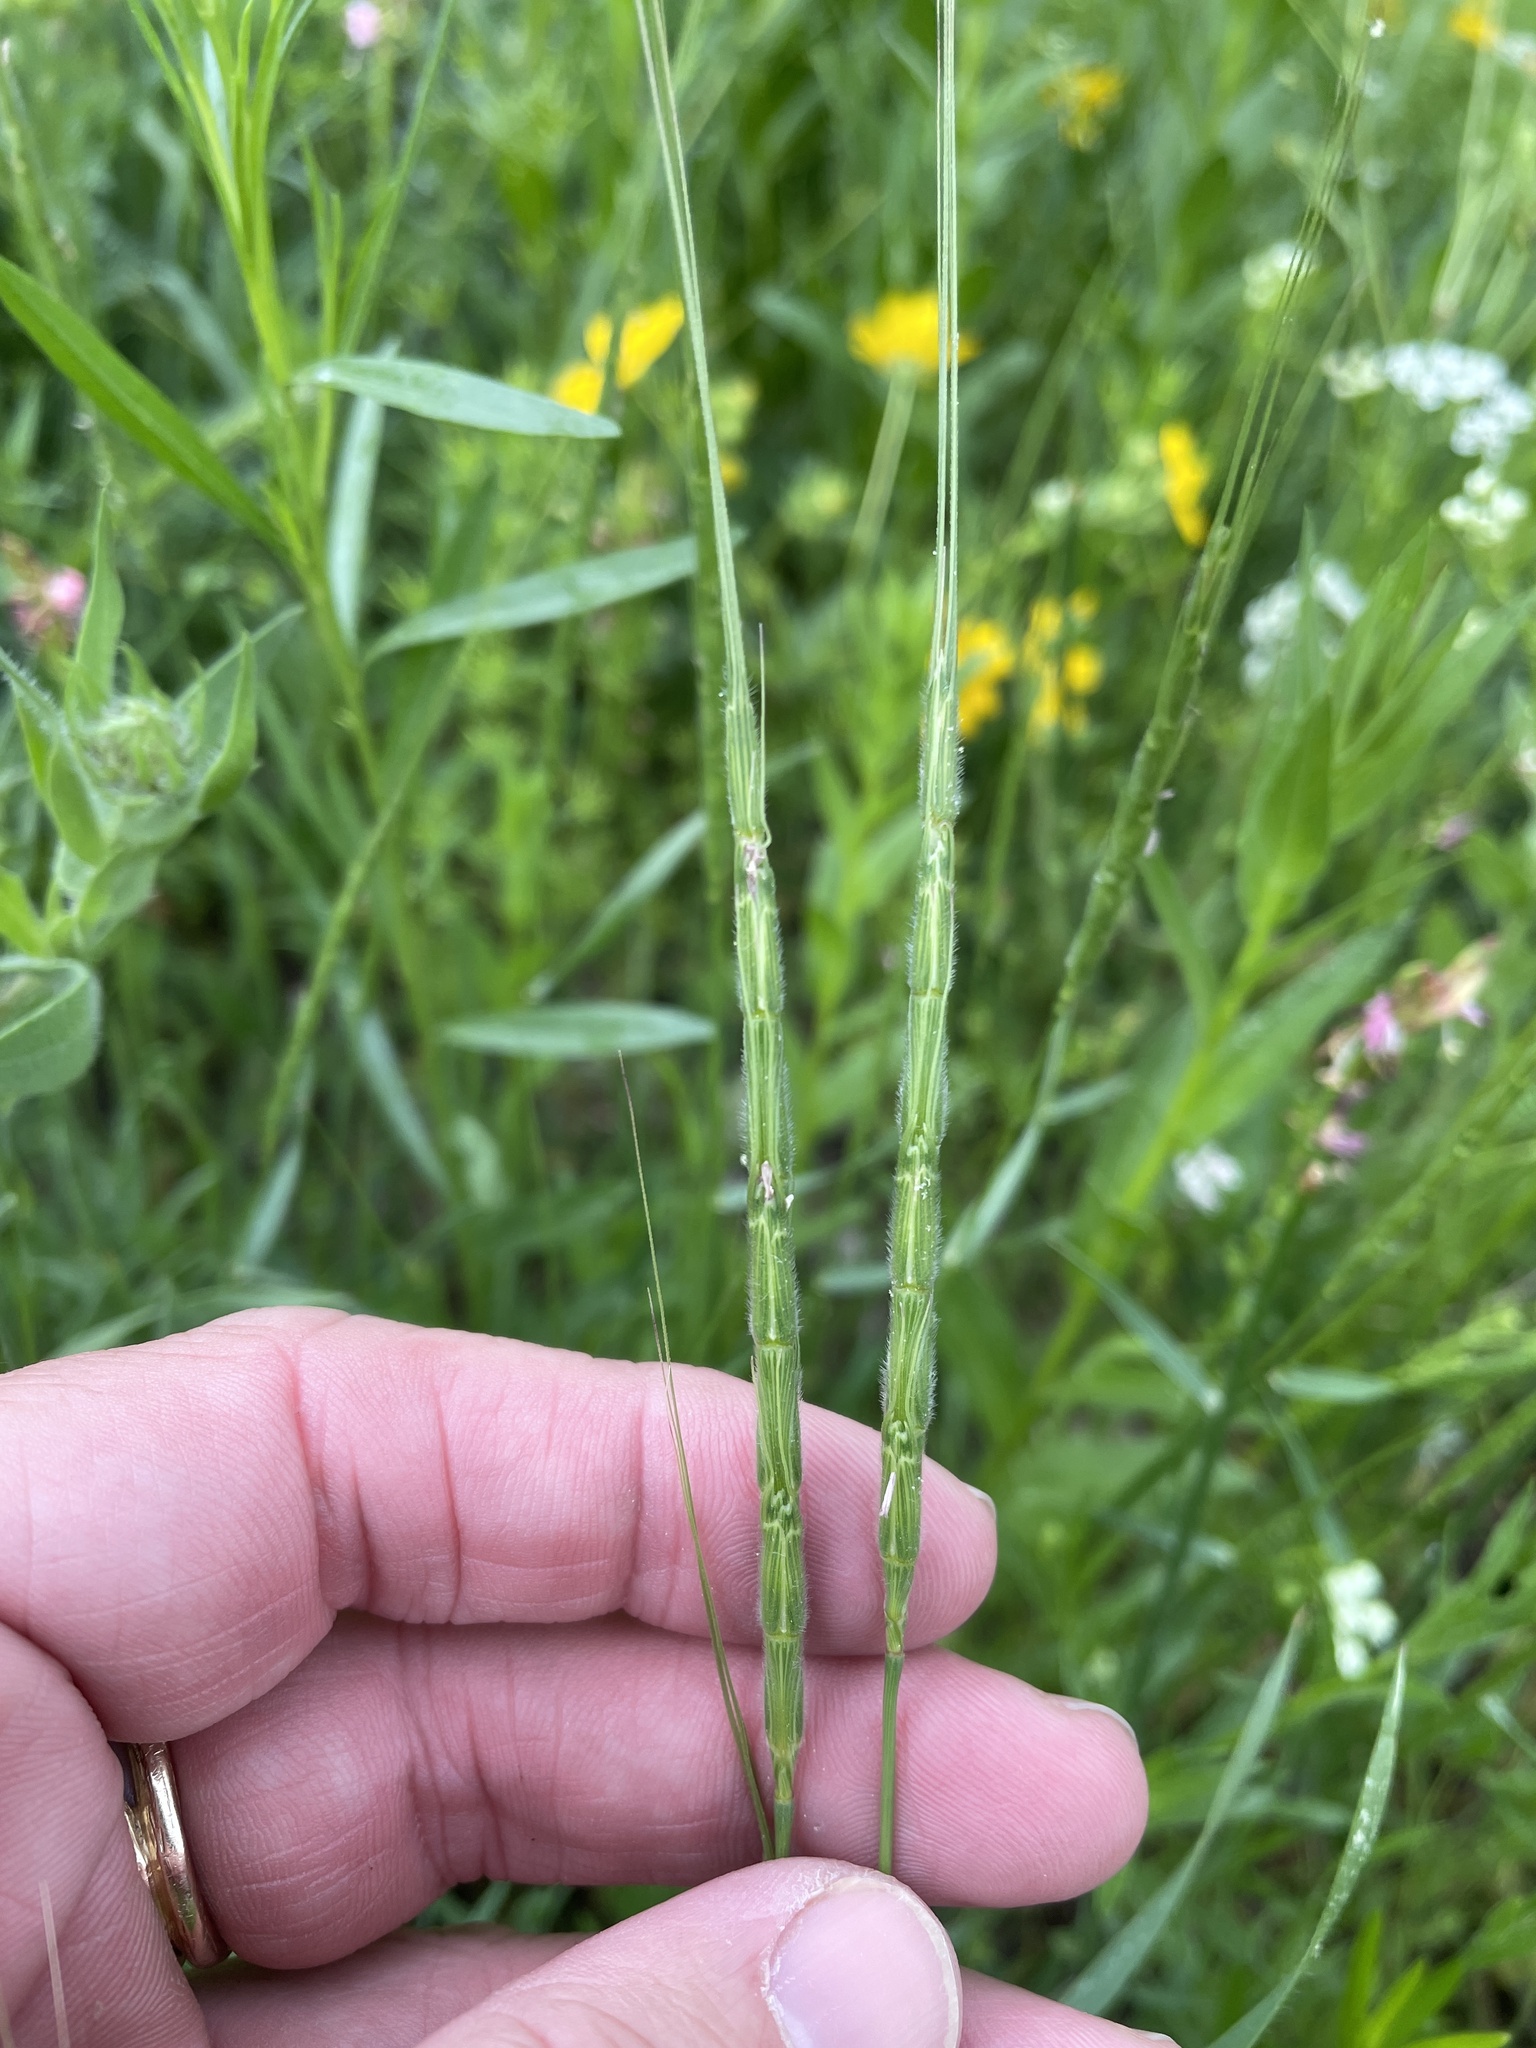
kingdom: Plantae
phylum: Tracheophyta
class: Liliopsida
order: Poales
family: Poaceae
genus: Aegilops
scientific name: Aegilops cylindrica
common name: Jointed goatgrass
